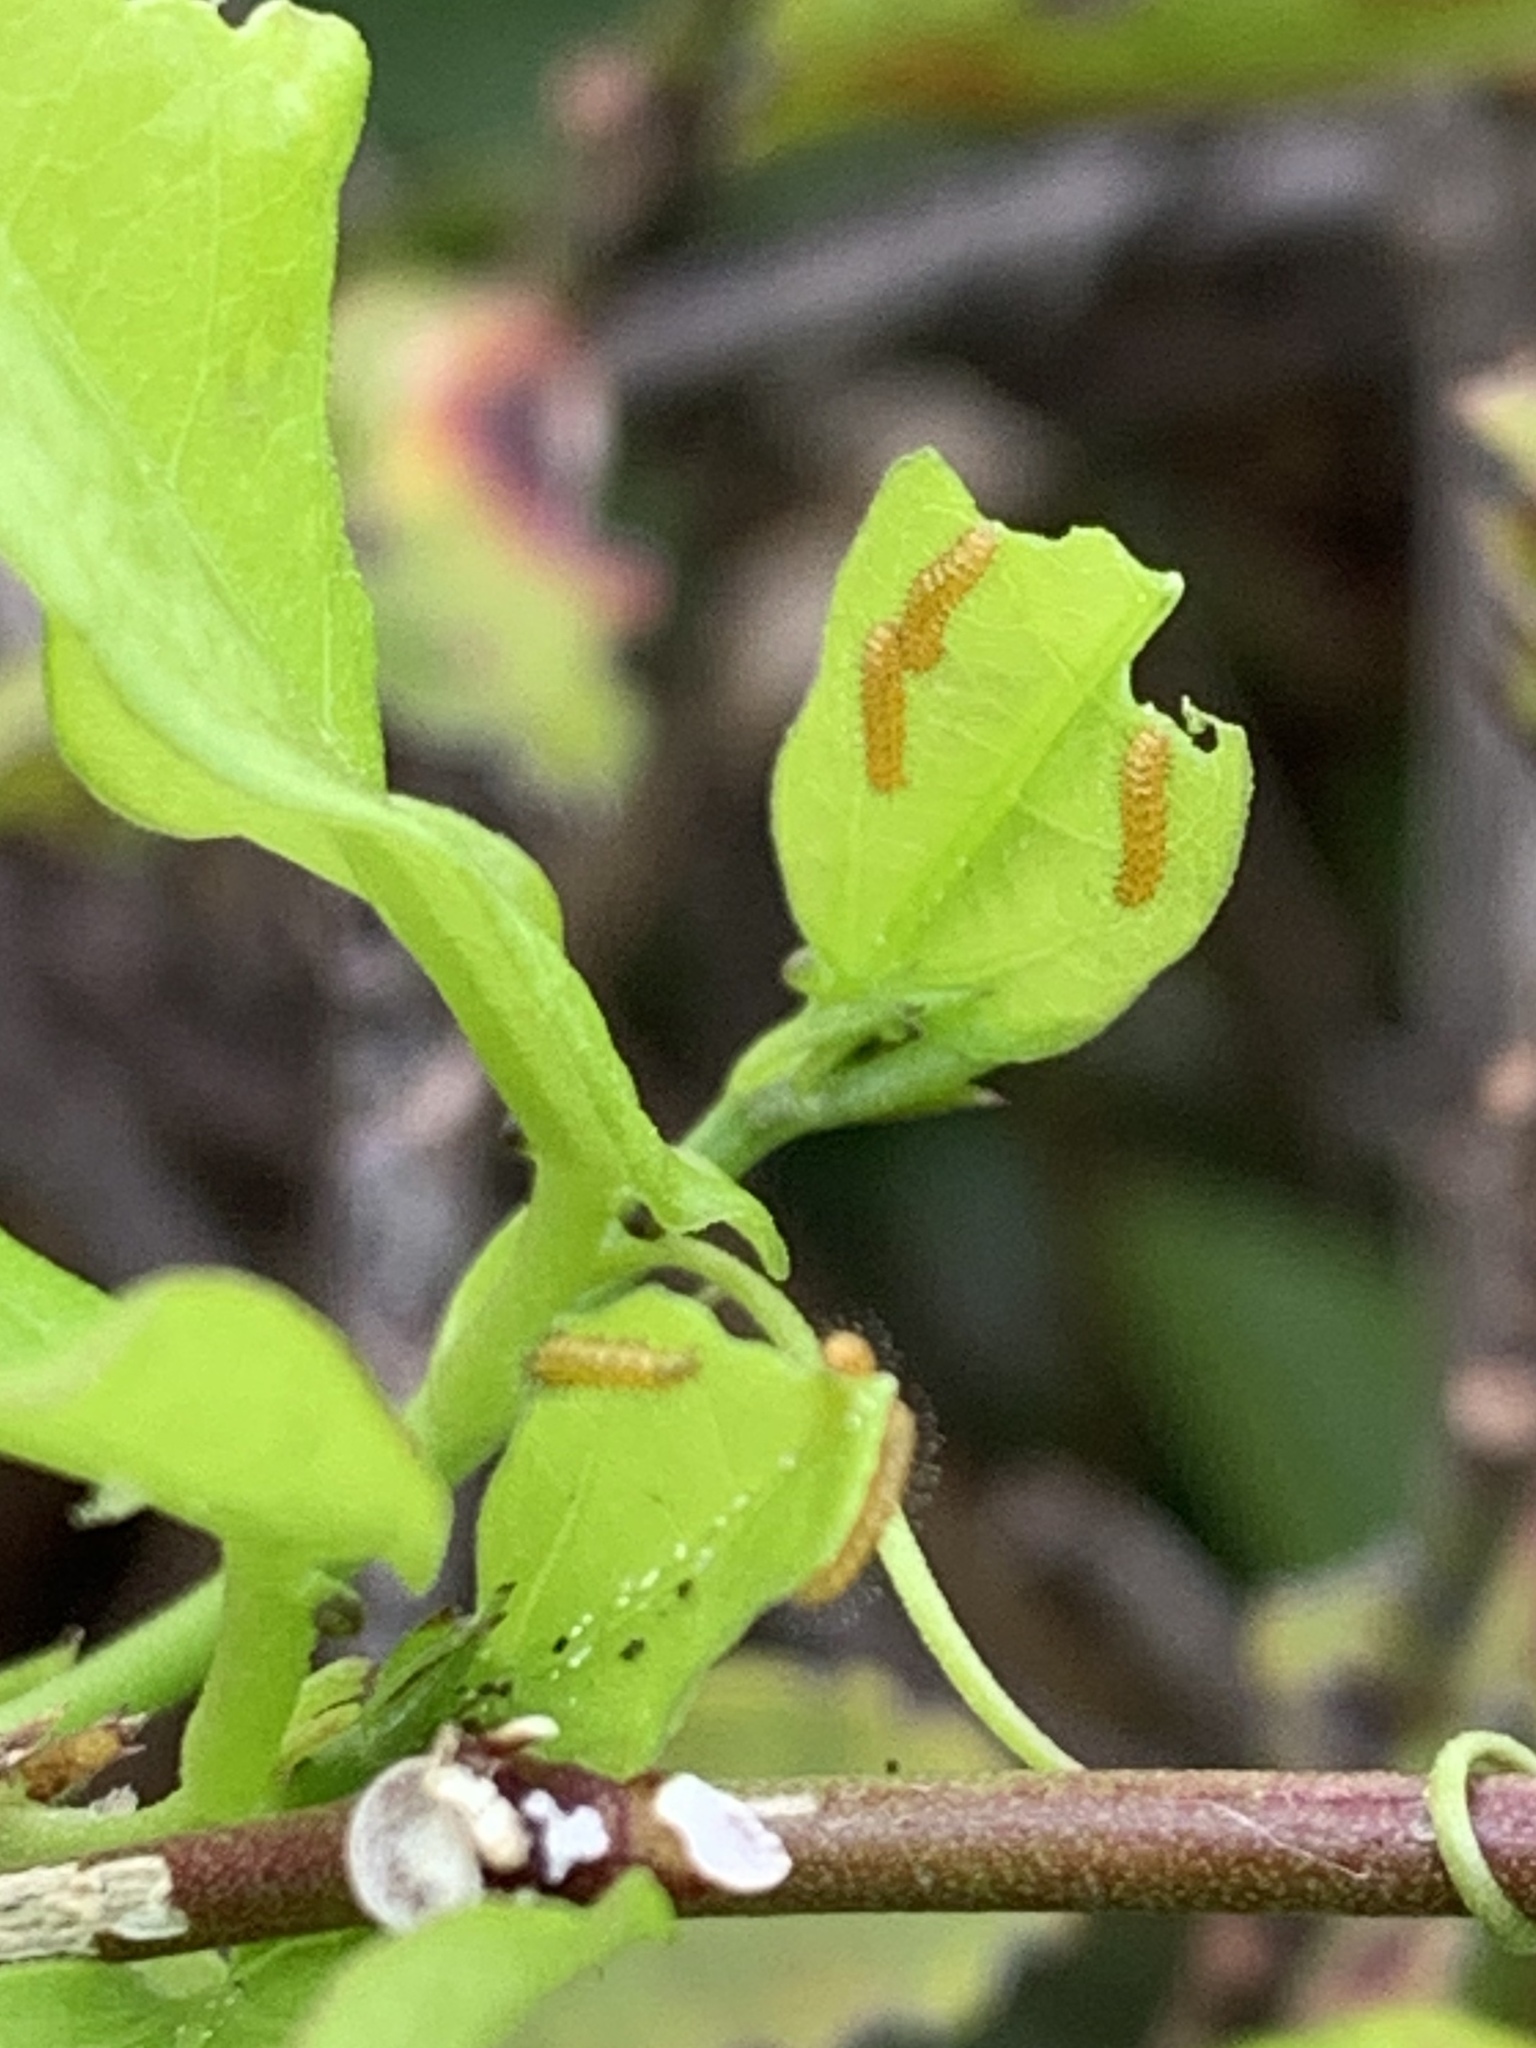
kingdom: Animalia
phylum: Arthropoda
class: Insecta
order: Lepidoptera
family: Nymphalidae
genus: Heliconius
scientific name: Heliconius charithonia
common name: Zebra long wing
